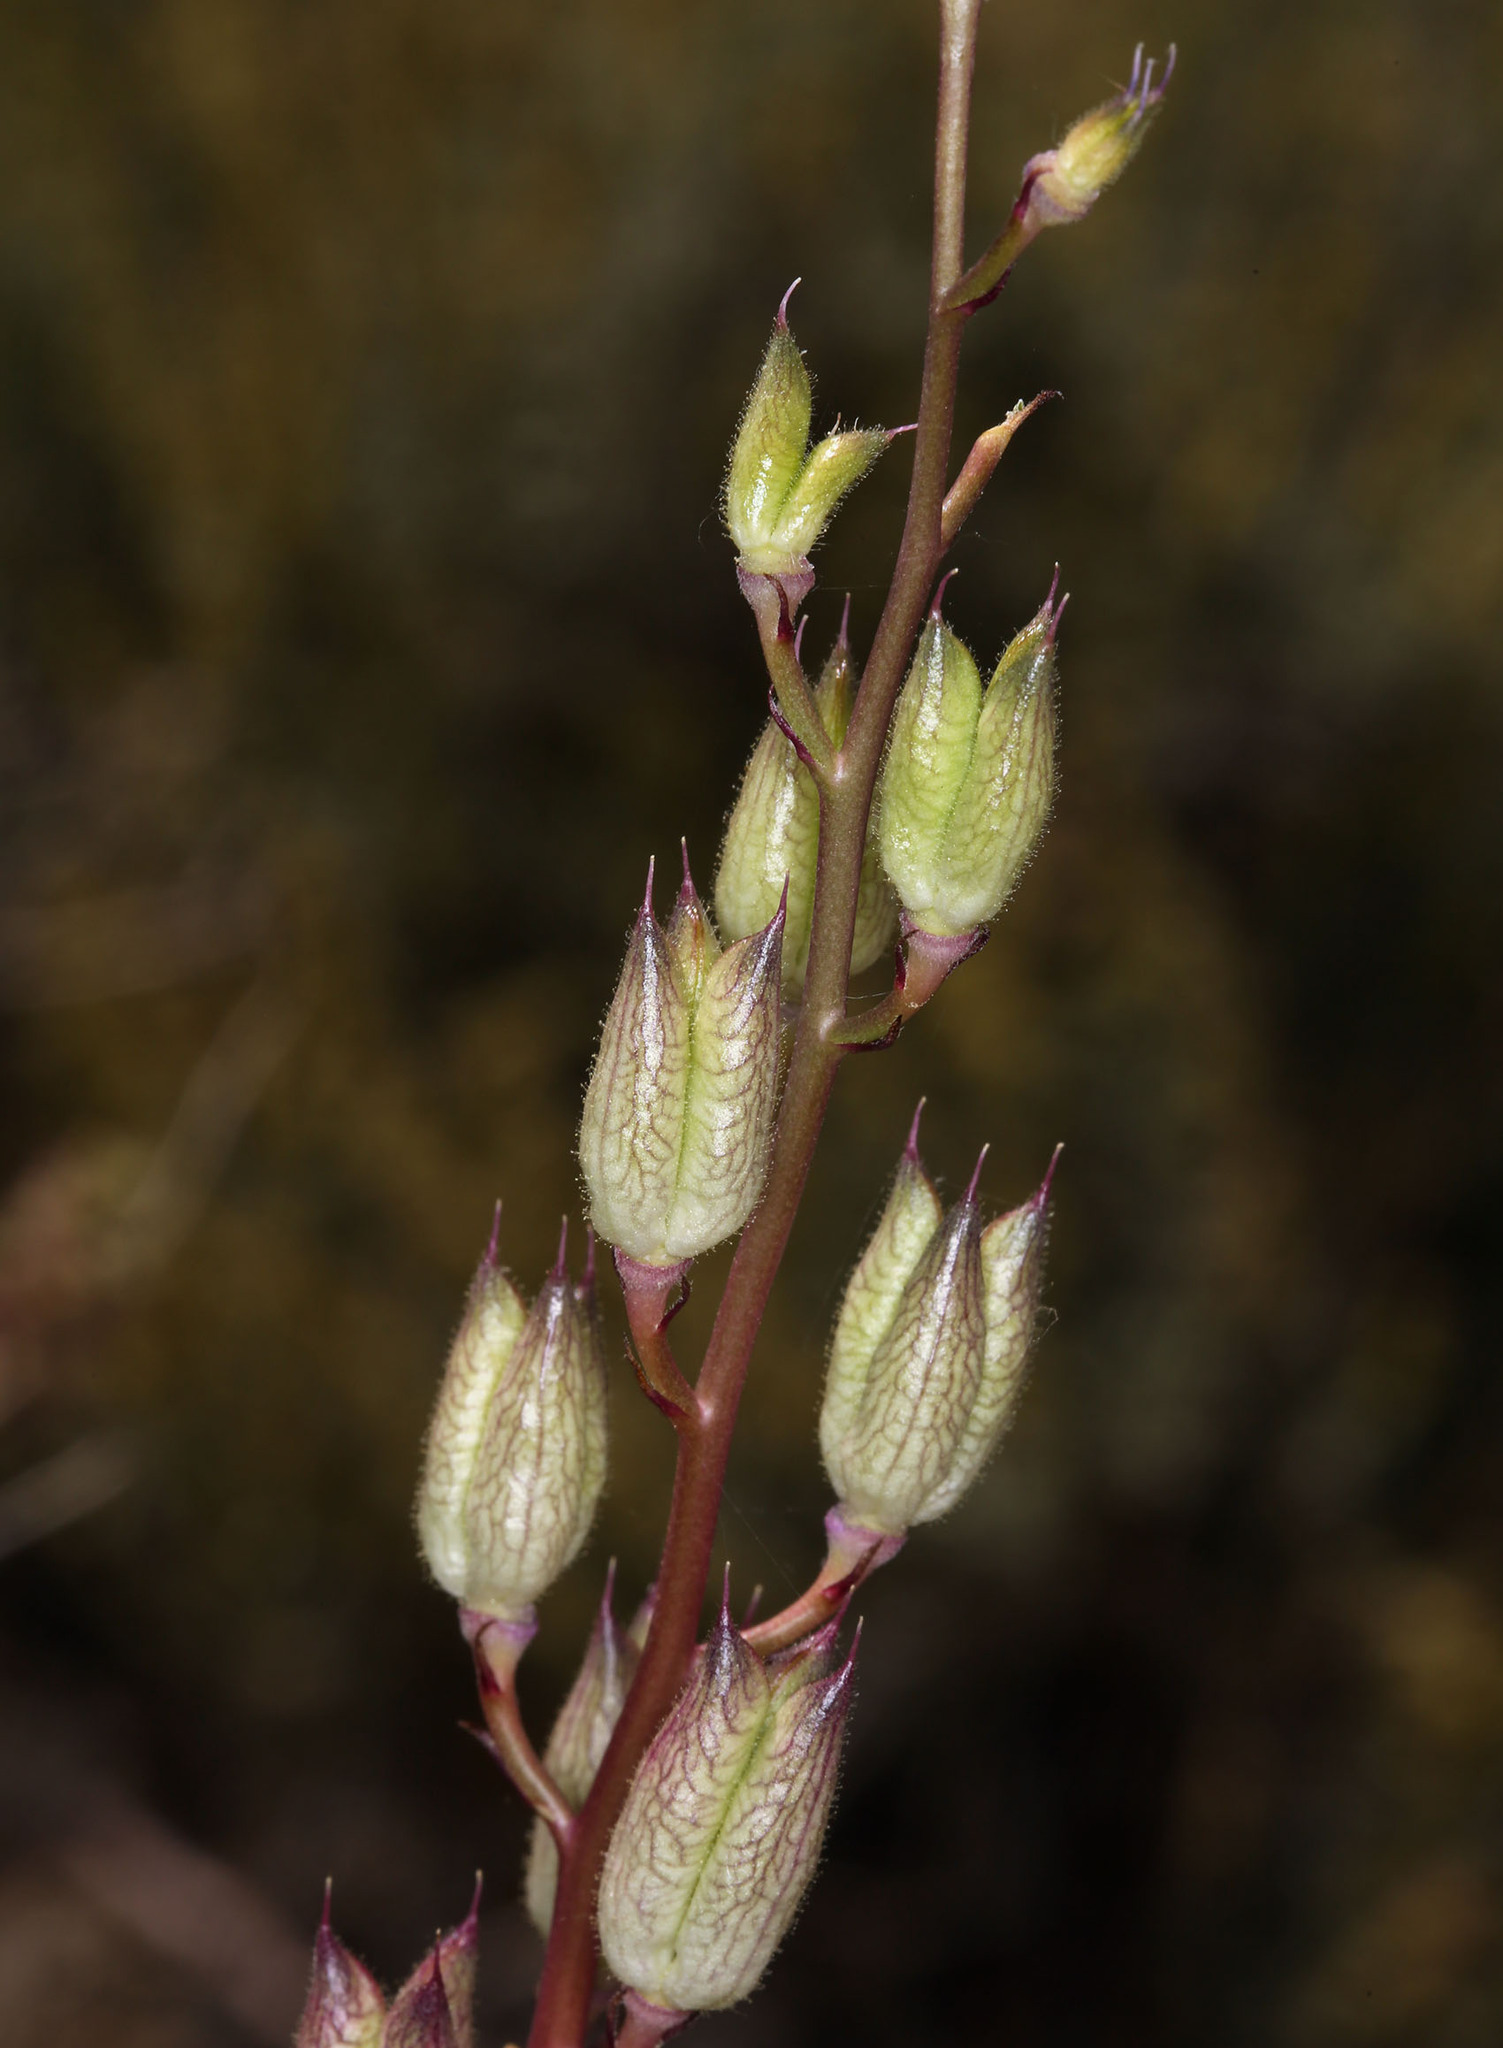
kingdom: Plantae
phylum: Tracheophyta
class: Magnoliopsida
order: Ranunculales
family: Ranunculaceae
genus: Delphinium
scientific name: Delphinium parishii
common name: Apache larkspur
